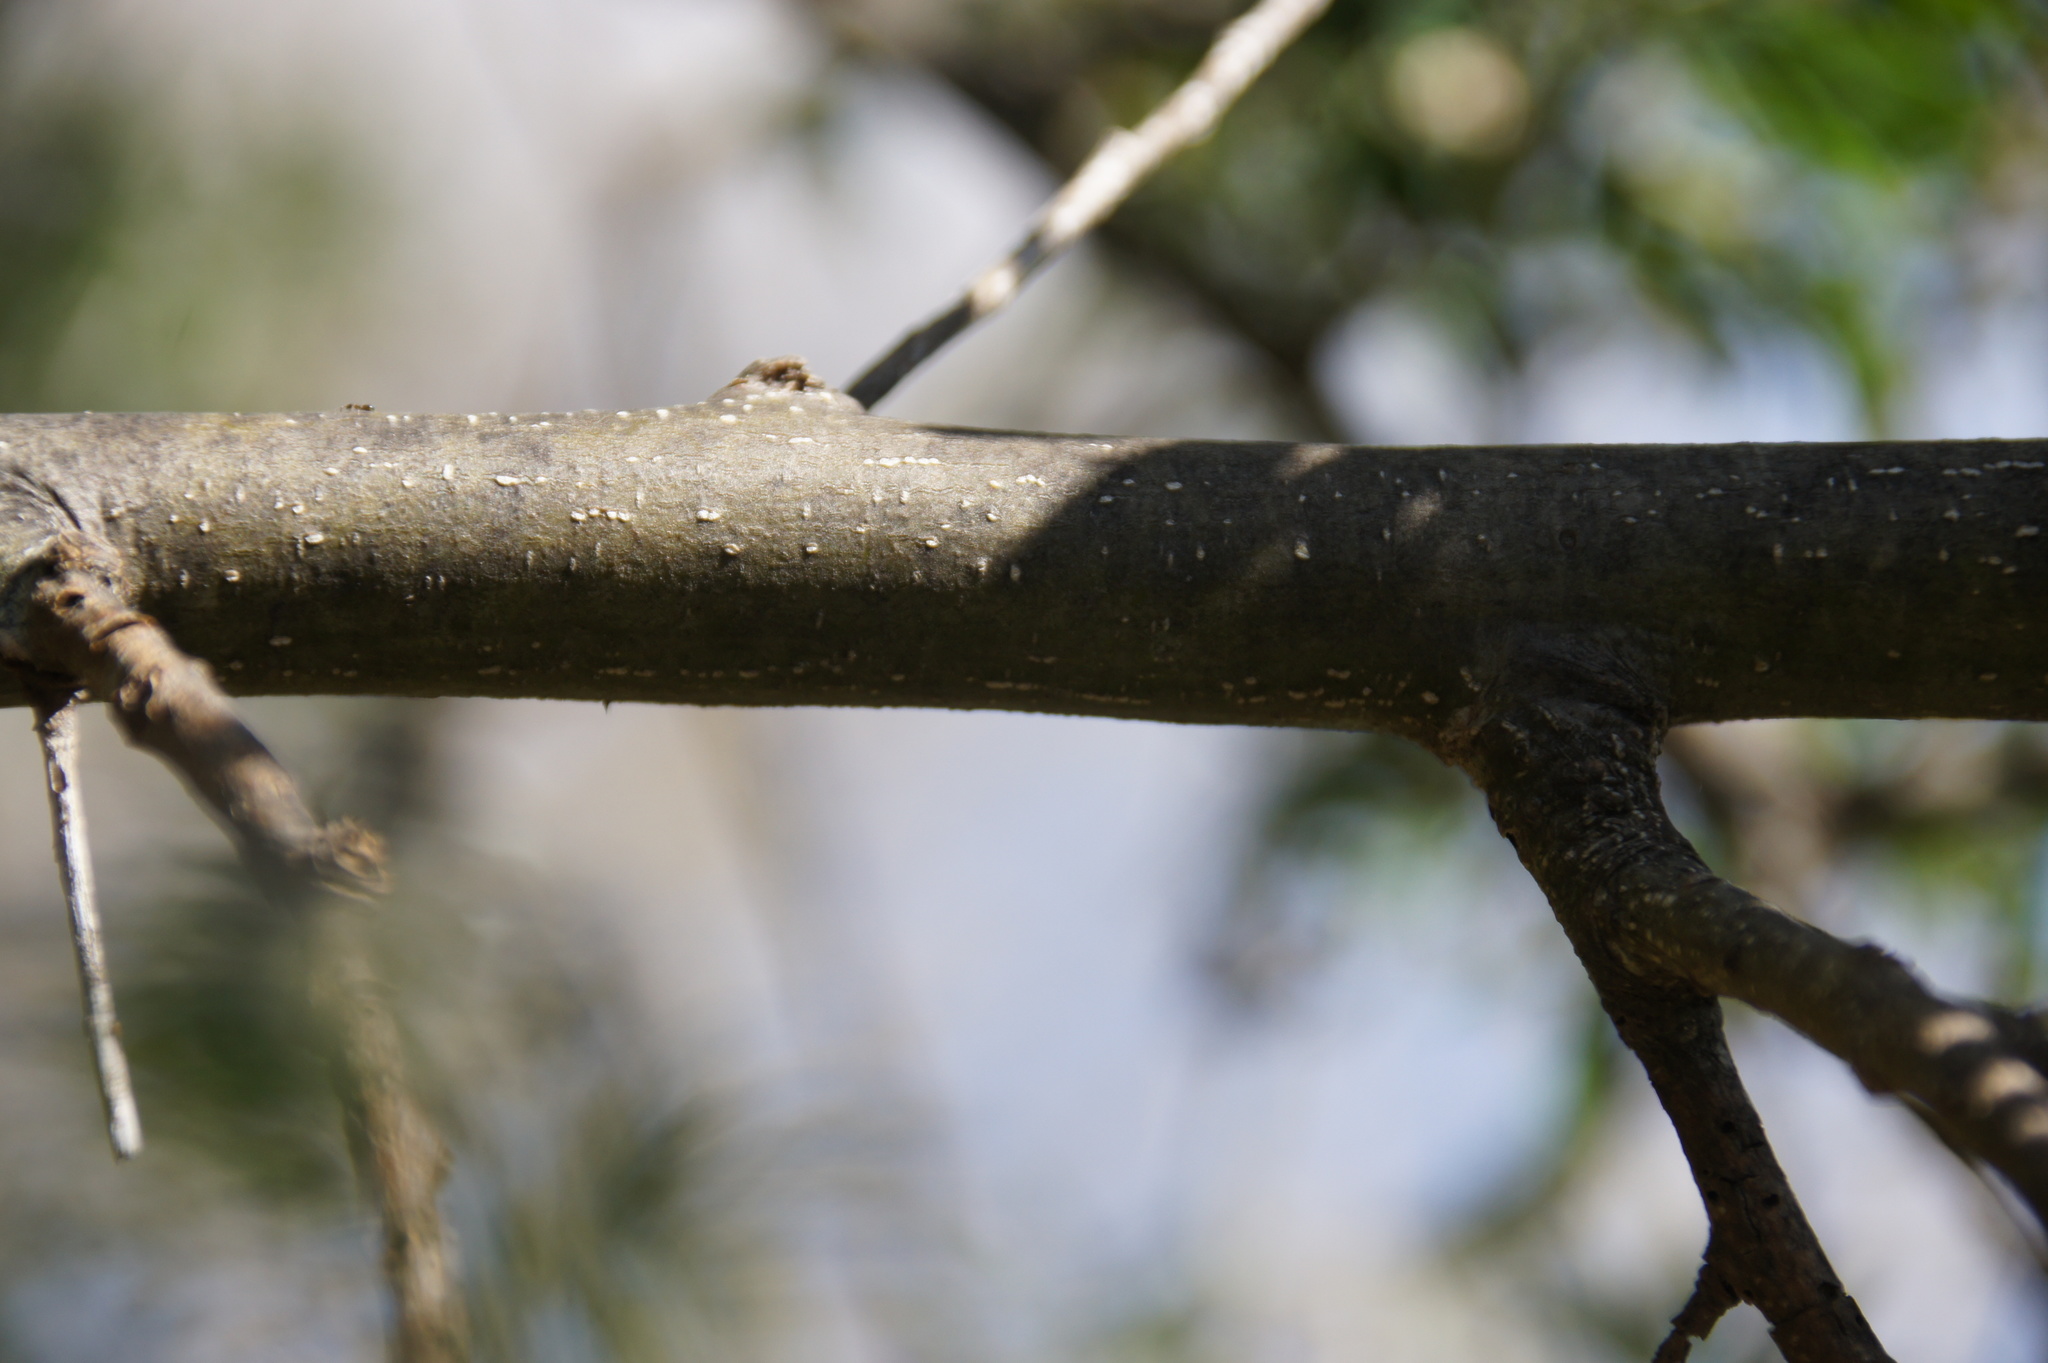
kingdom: Plantae
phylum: Tracheophyta
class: Magnoliopsida
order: Fabales
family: Fabaceae
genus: Chamaecytisus
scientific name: Chamaecytisus prolifer
